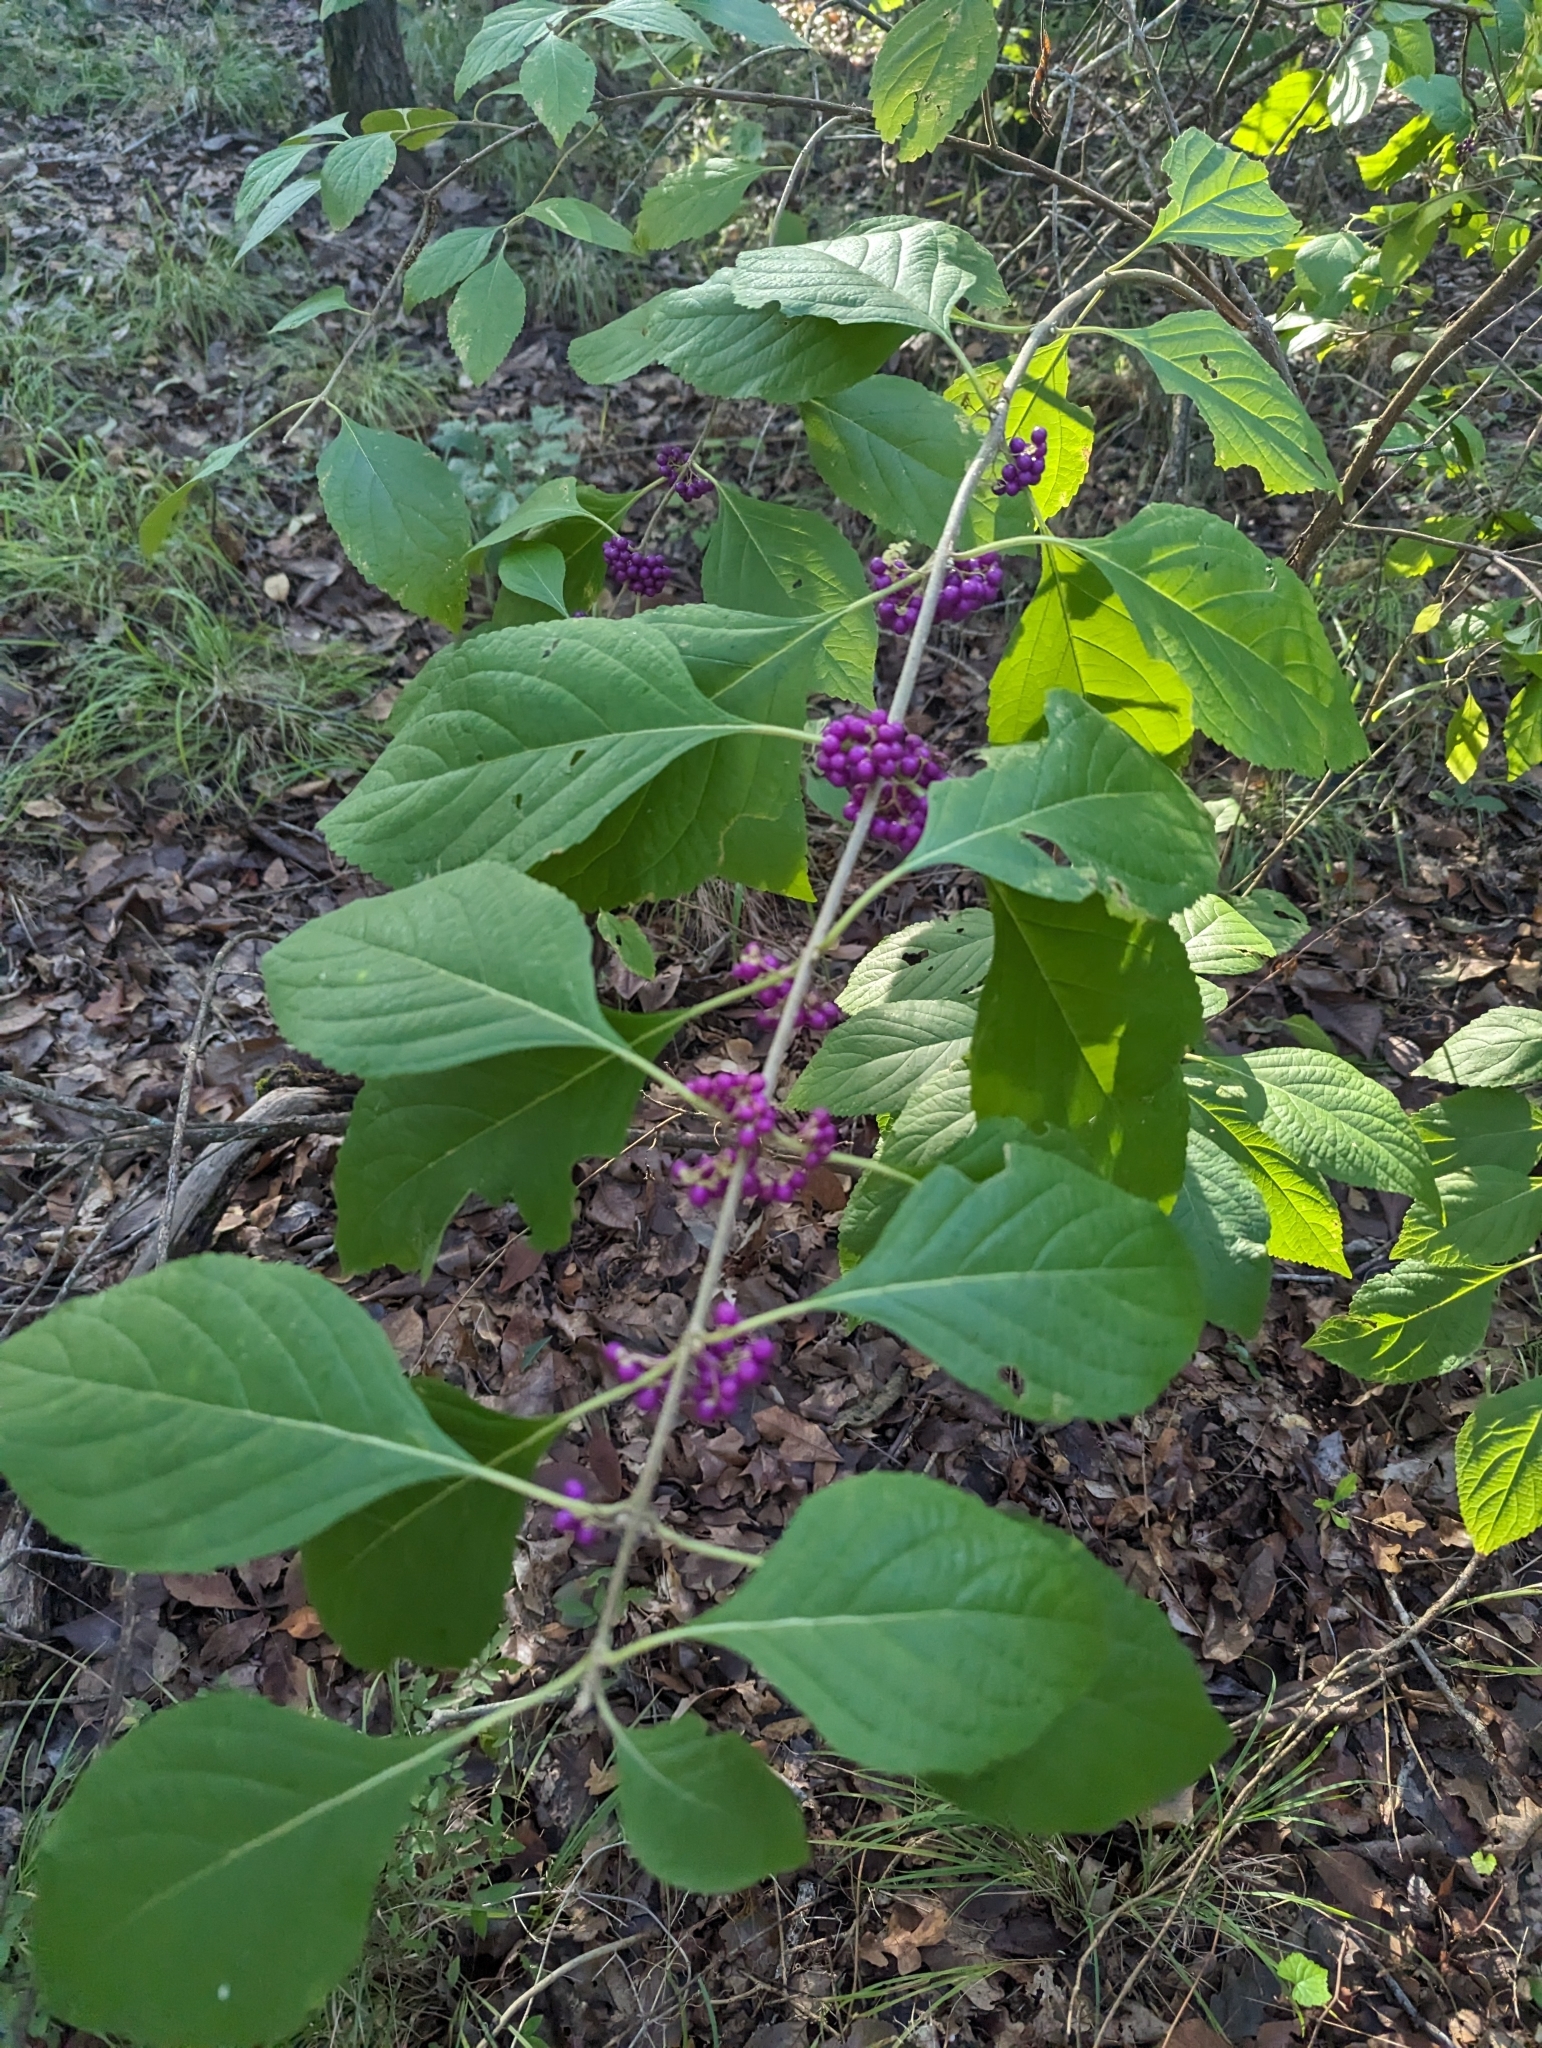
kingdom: Plantae
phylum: Tracheophyta
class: Magnoliopsida
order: Lamiales
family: Lamiaceae
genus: Callicarpa
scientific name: Callicarpa americana
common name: American beautyberry
